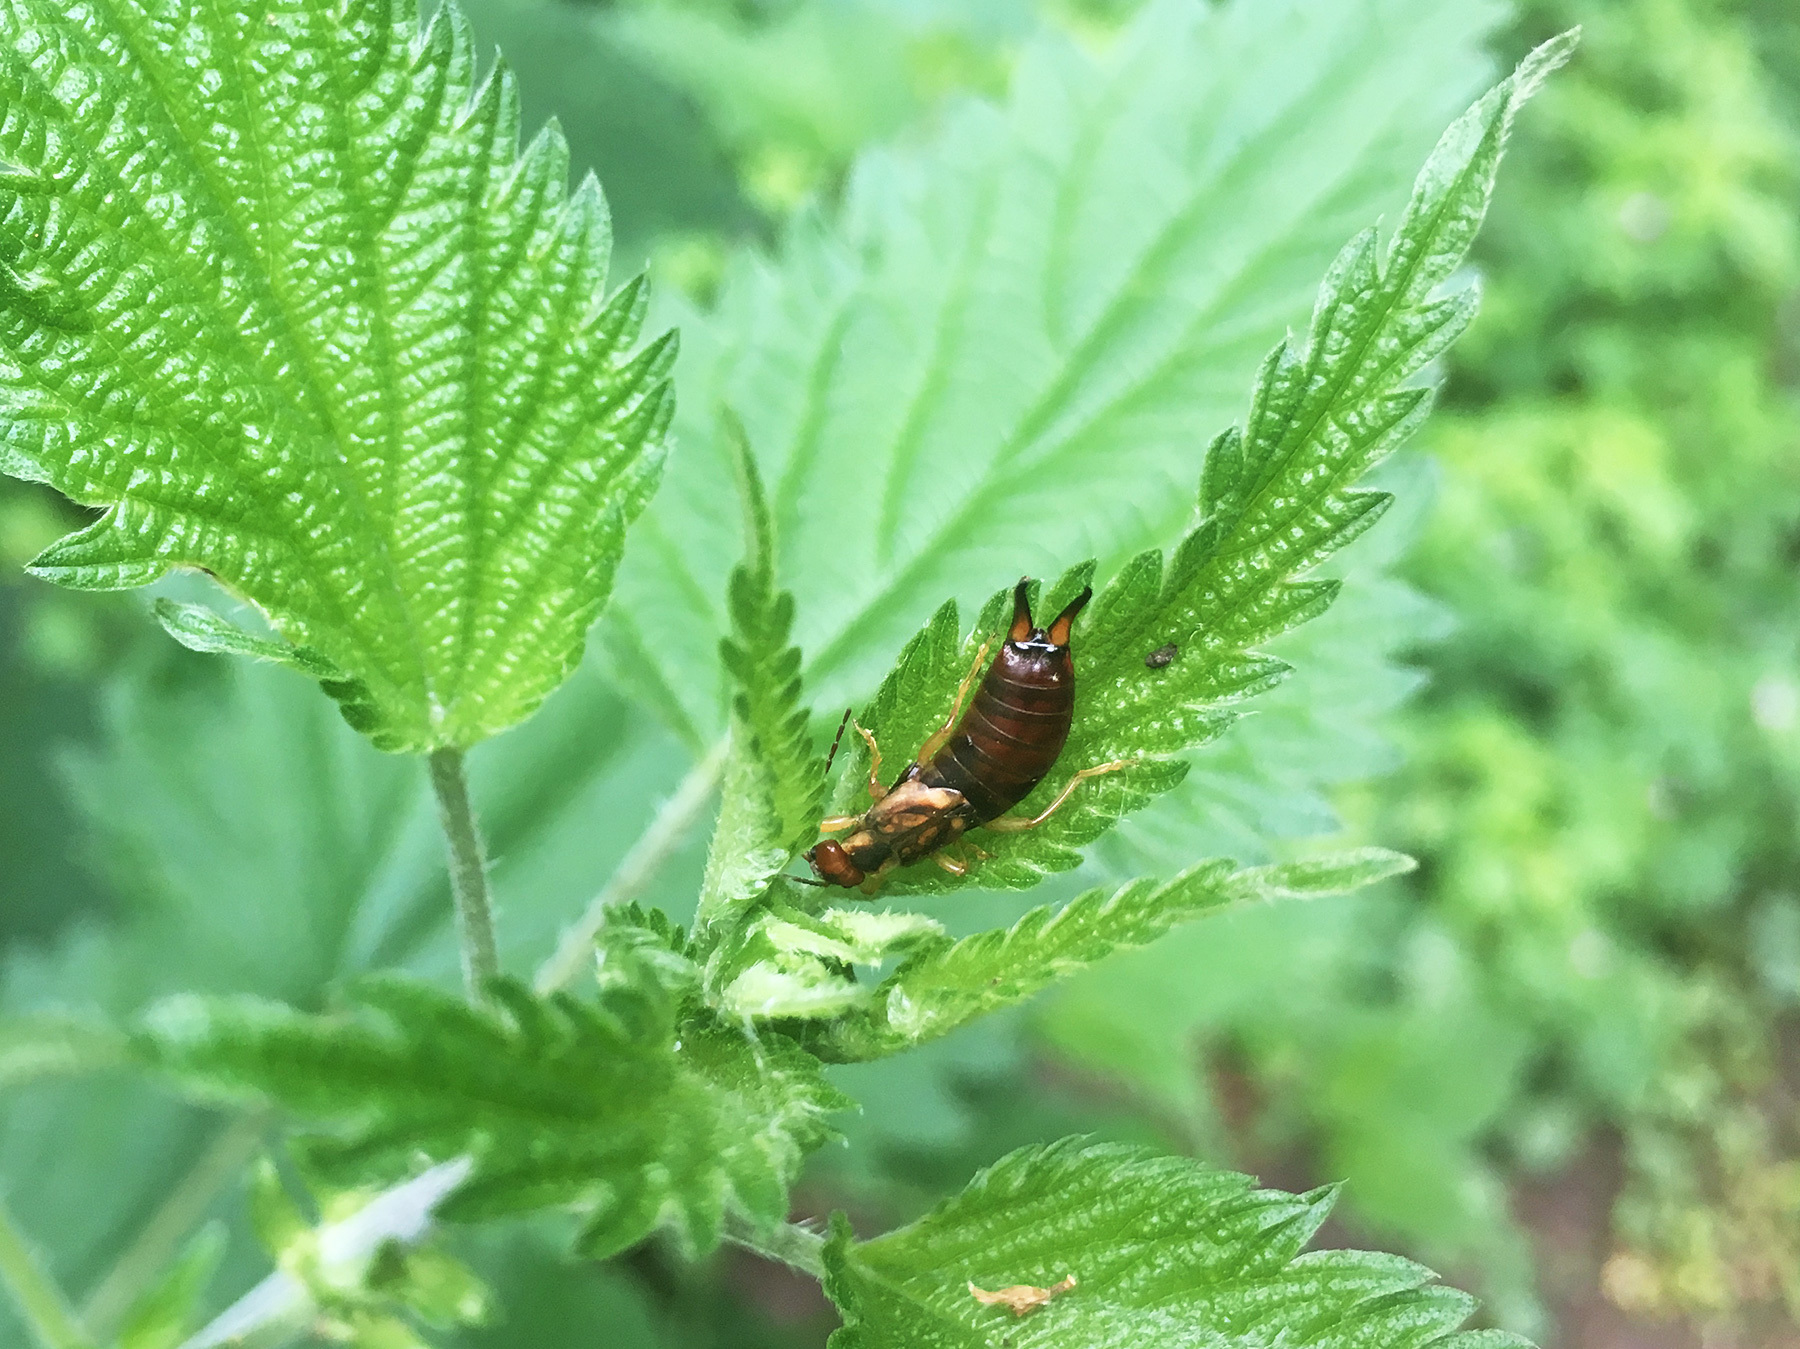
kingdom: Animalia
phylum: Arthropoda
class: Insecta
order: Dermaptera
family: Forficulidae
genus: Forficula
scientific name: Forficula
